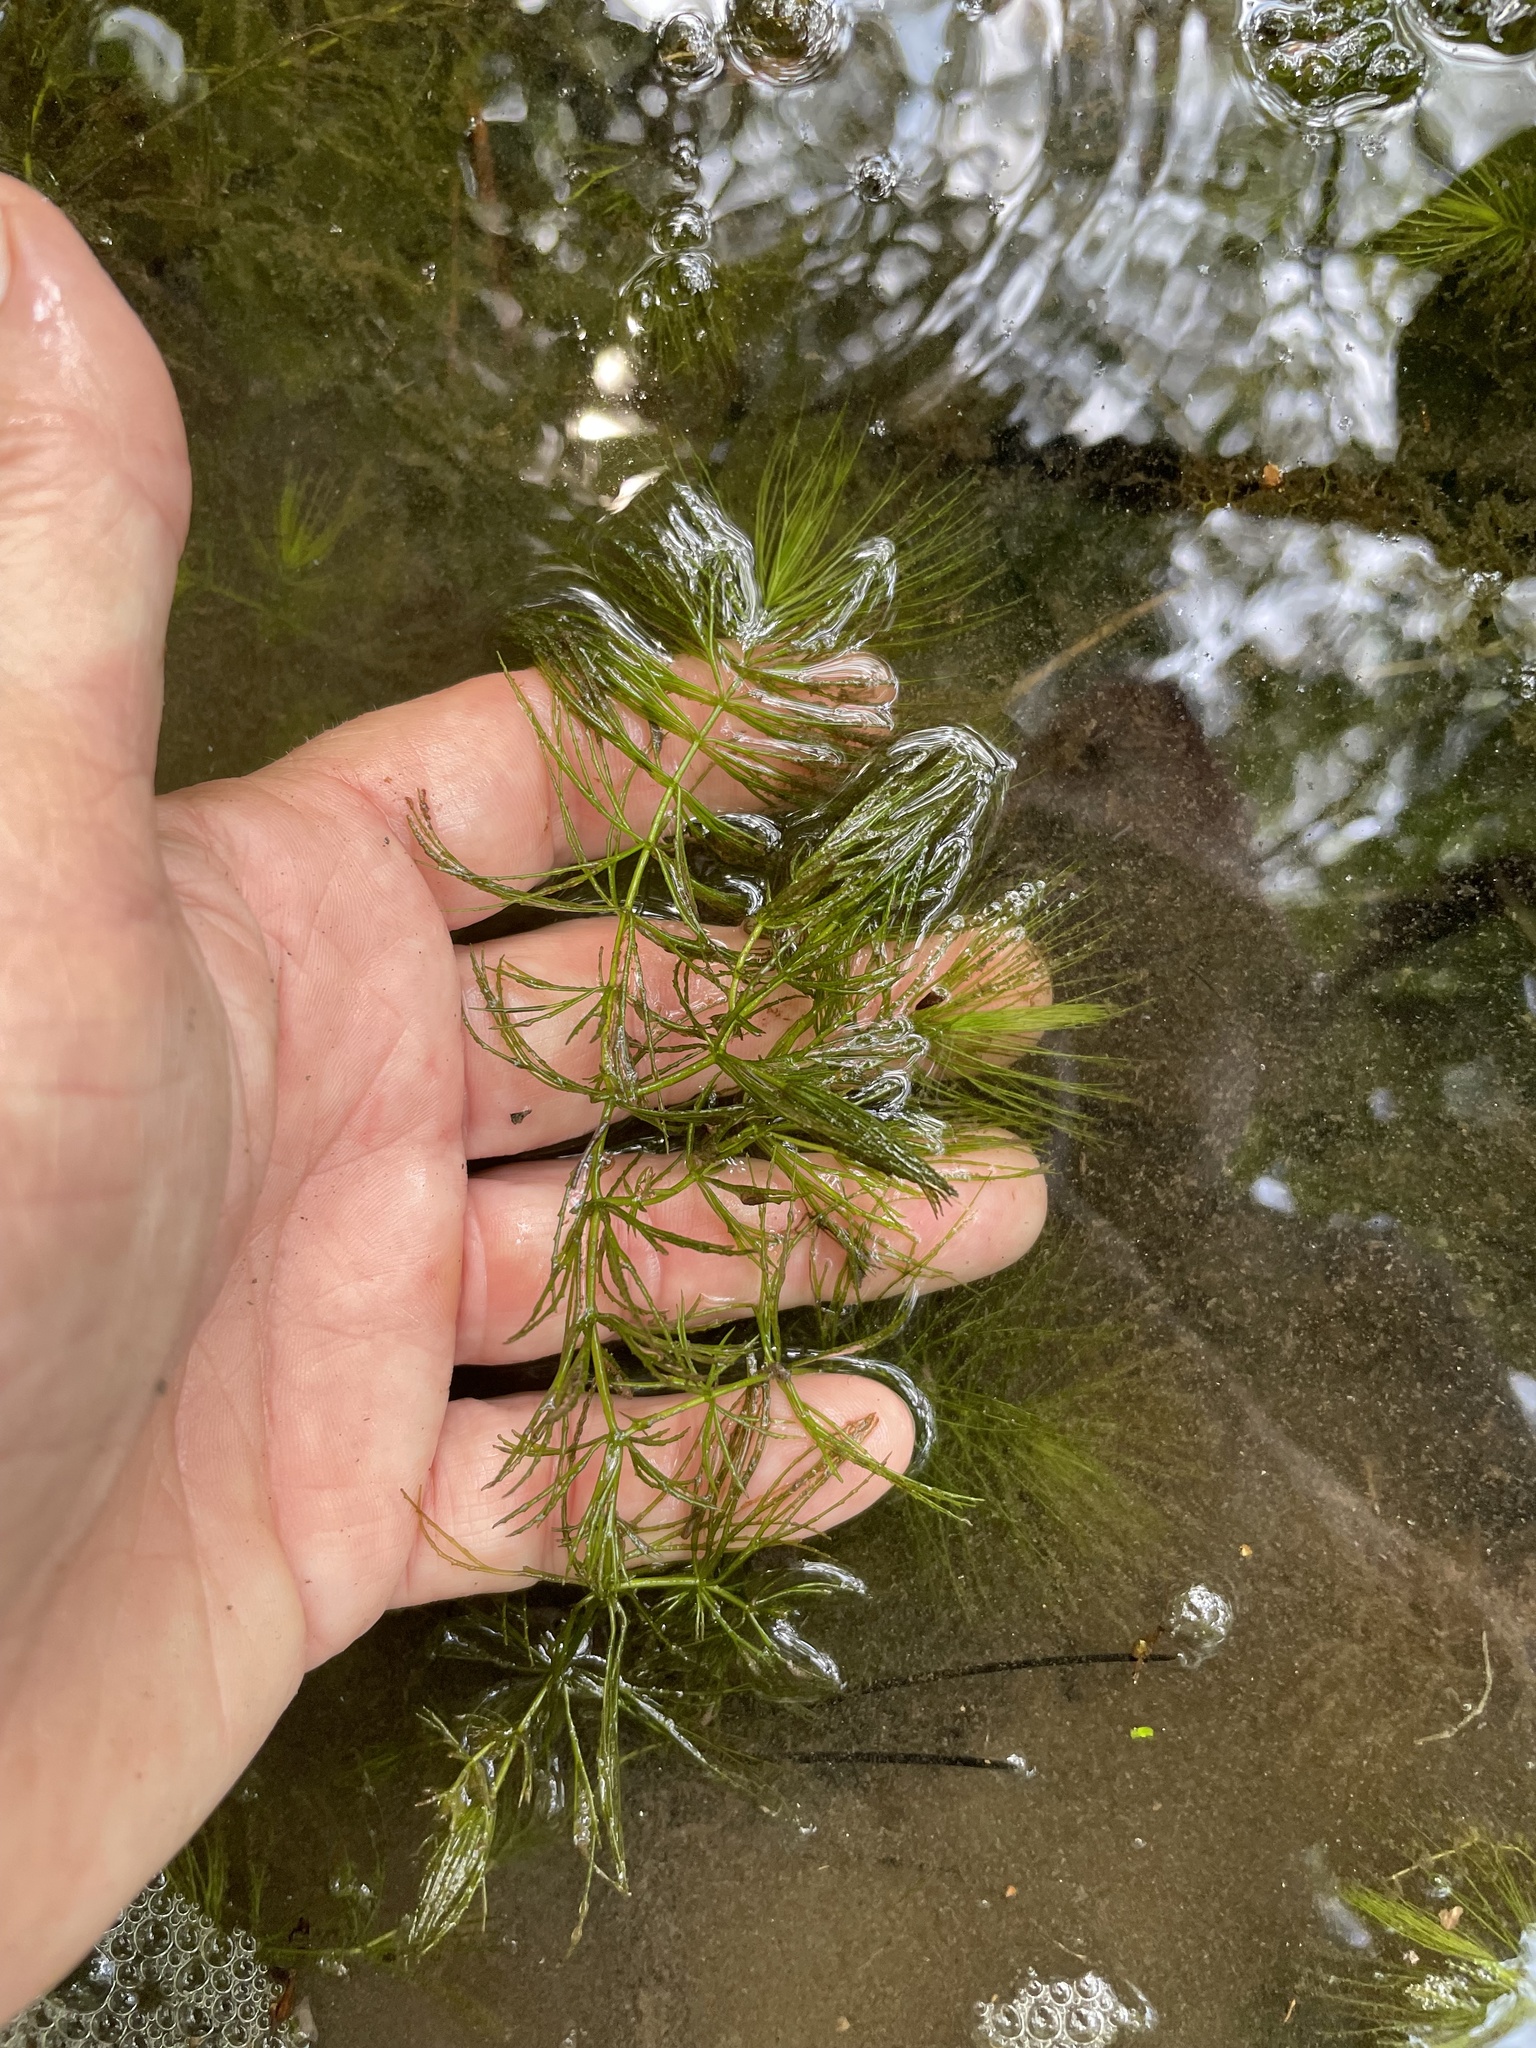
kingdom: Plantae
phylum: Tracheophyta
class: Magnoliopsida
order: Ceratophyllales
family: Ceratophyllaceae
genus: Ceratophyllum
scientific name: Ceratophyllum echinatum
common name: Prickly coontail
